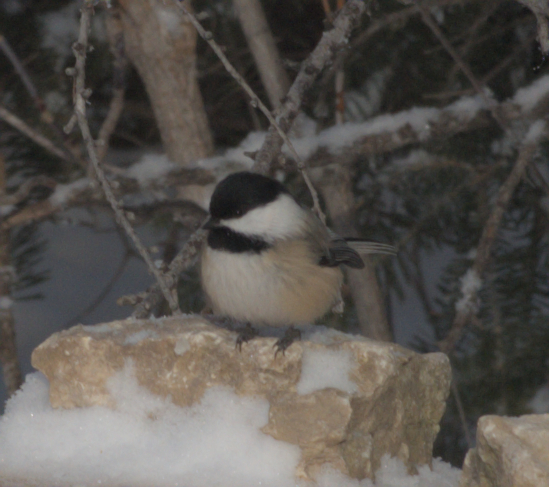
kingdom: Animalia
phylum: Chordata
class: Aves
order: Passeriformes
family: Paridae
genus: Poecile
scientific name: Poecile atricapillus
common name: Black-capped chickadee
